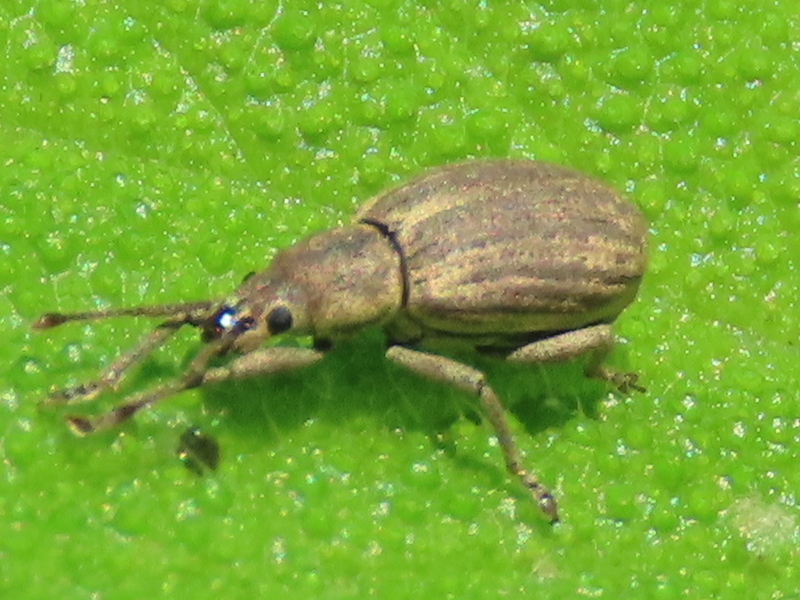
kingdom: Animalia
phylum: Arthropoda
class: Insecta
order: Coleoptera
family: Curculionidae
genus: Aphrastus
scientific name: Aphrastus taeniatus
